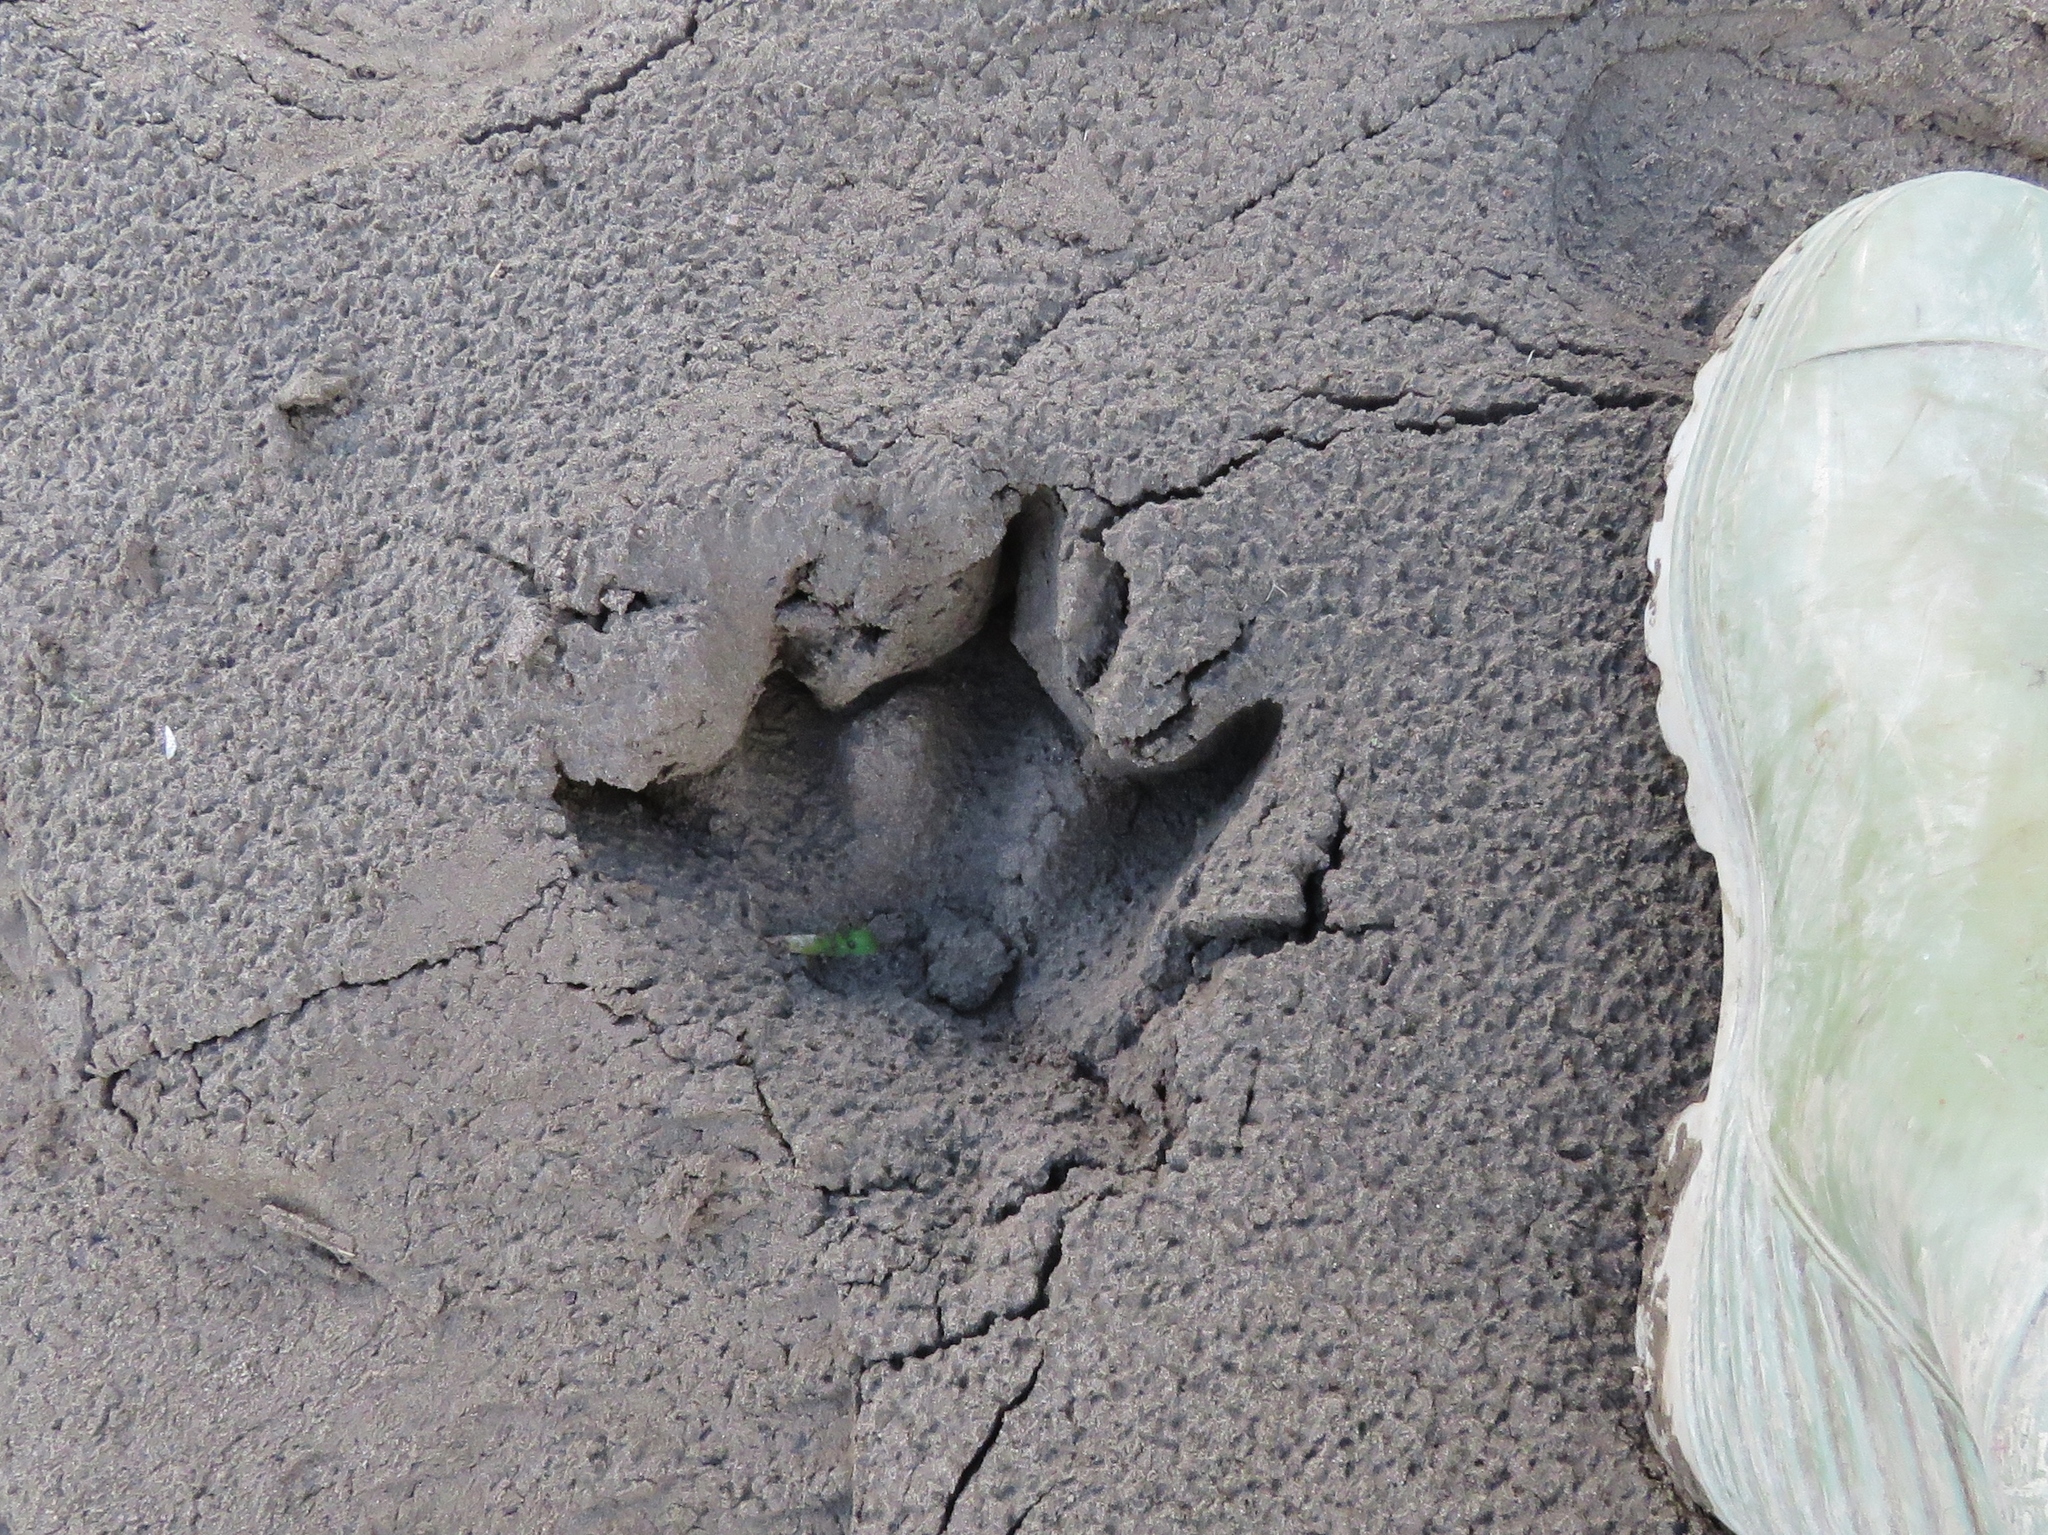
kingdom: Animalia
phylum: Chordata
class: Mammalia
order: Rodentia
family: Caviidae
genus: Hydrochoerus
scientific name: Hydrochoerus hydrochaeris
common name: Capybara
